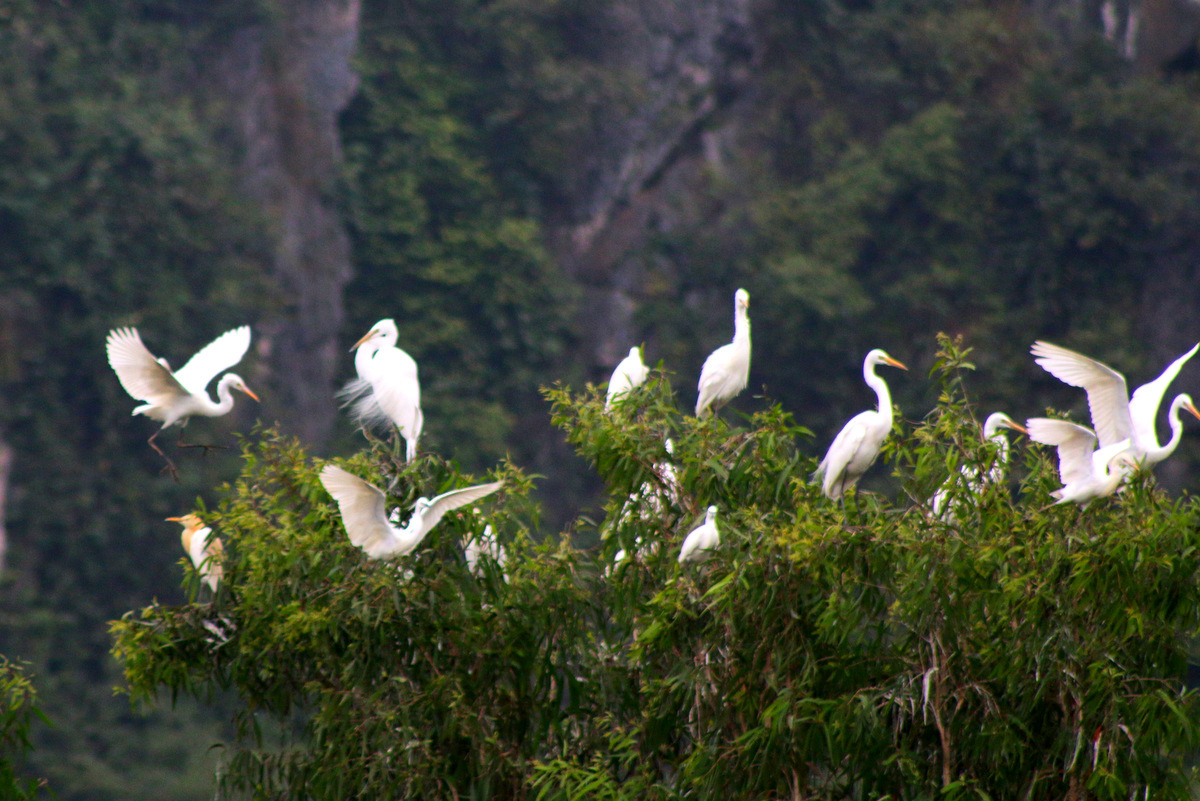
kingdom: Animalia
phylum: Chordata
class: Aves
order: Pelecaniformes
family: Ardeidae
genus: Egretta
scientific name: Egretta intermedia
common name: Intermediate egret
